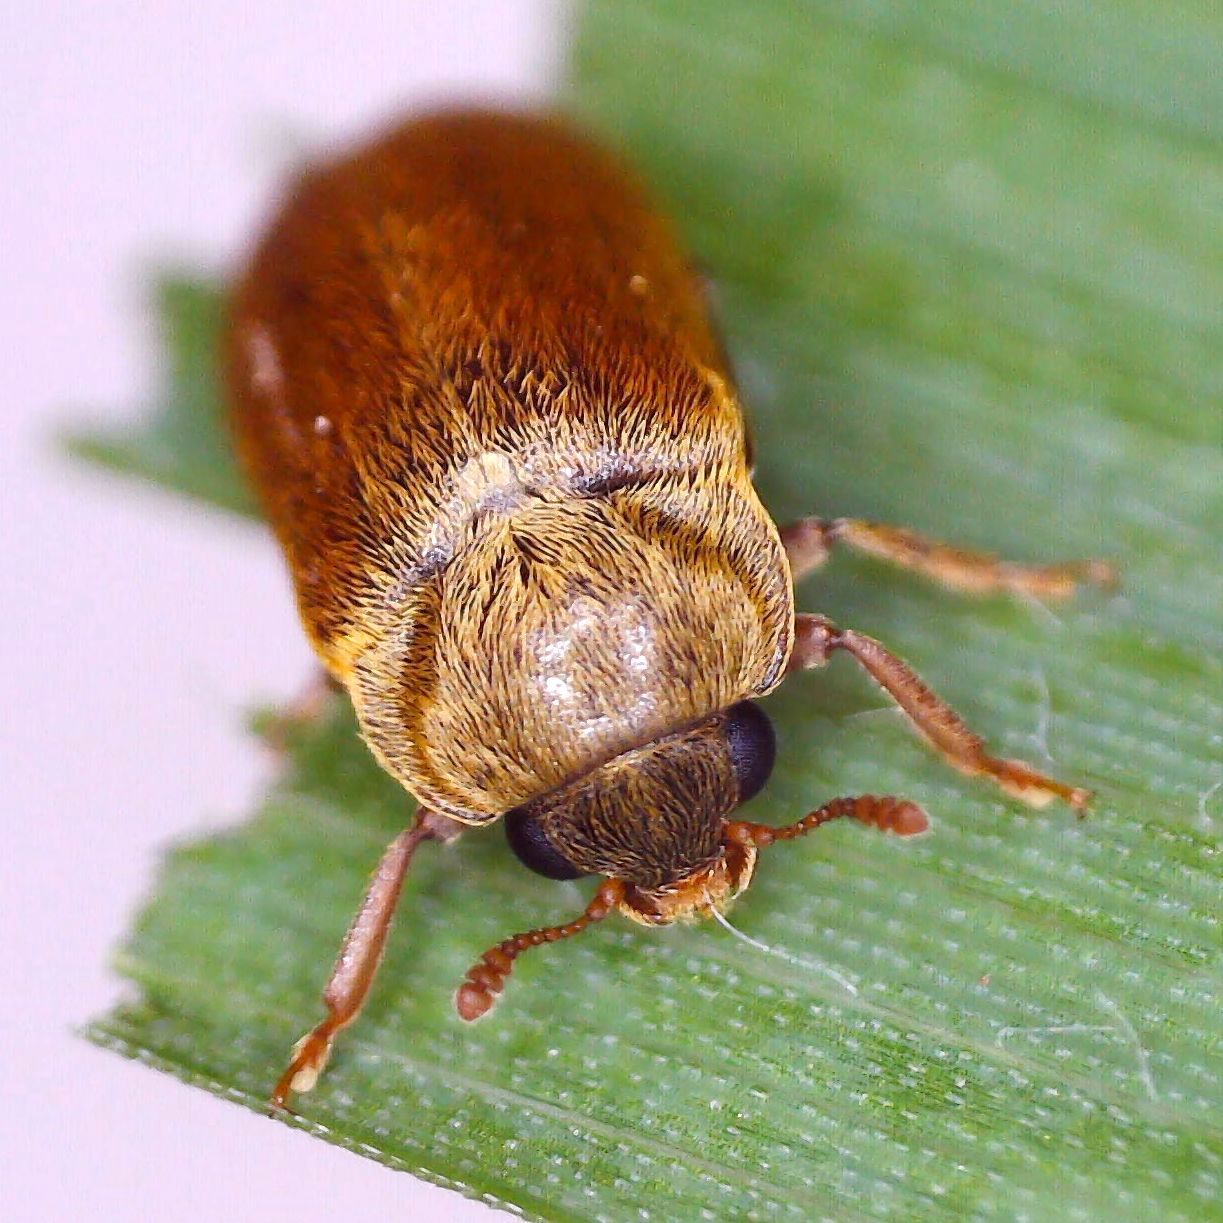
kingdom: Animalia
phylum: Arthropoda
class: Insecta
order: Coleoptera
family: Byturidae
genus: Byturus
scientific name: Byturus ochraceus
